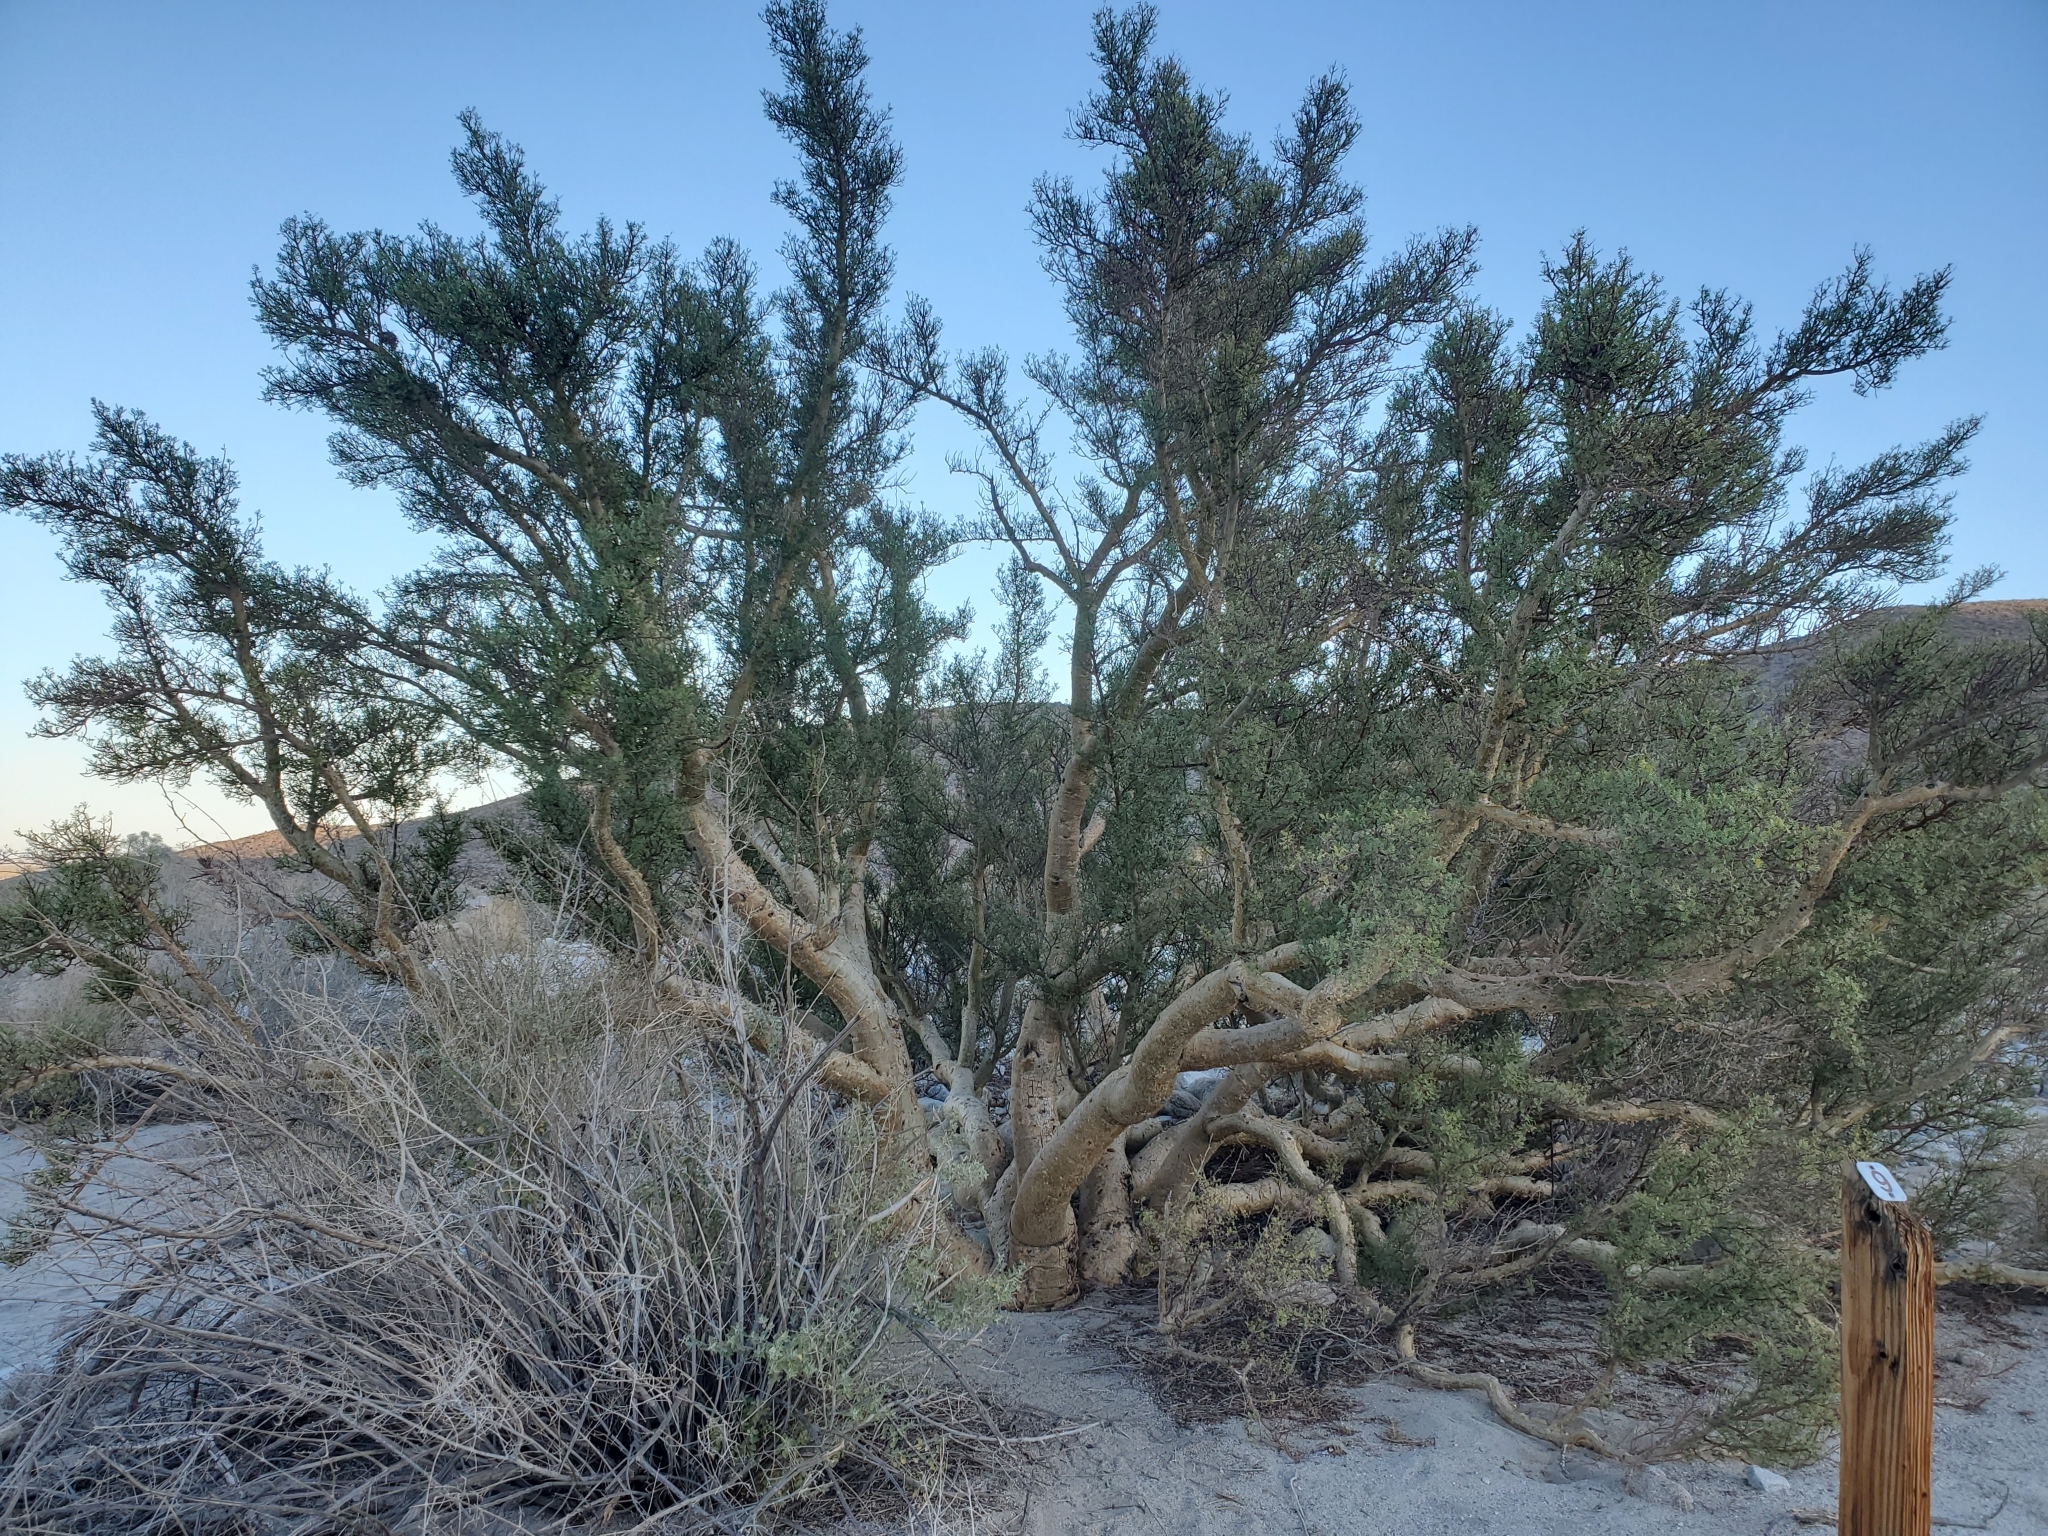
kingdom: Plantae
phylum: Tracheophyta
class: Magnoliopsida
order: Sapindales
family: Burseraceae
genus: Bursera
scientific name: Bursera microphylla
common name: Elephant tree
